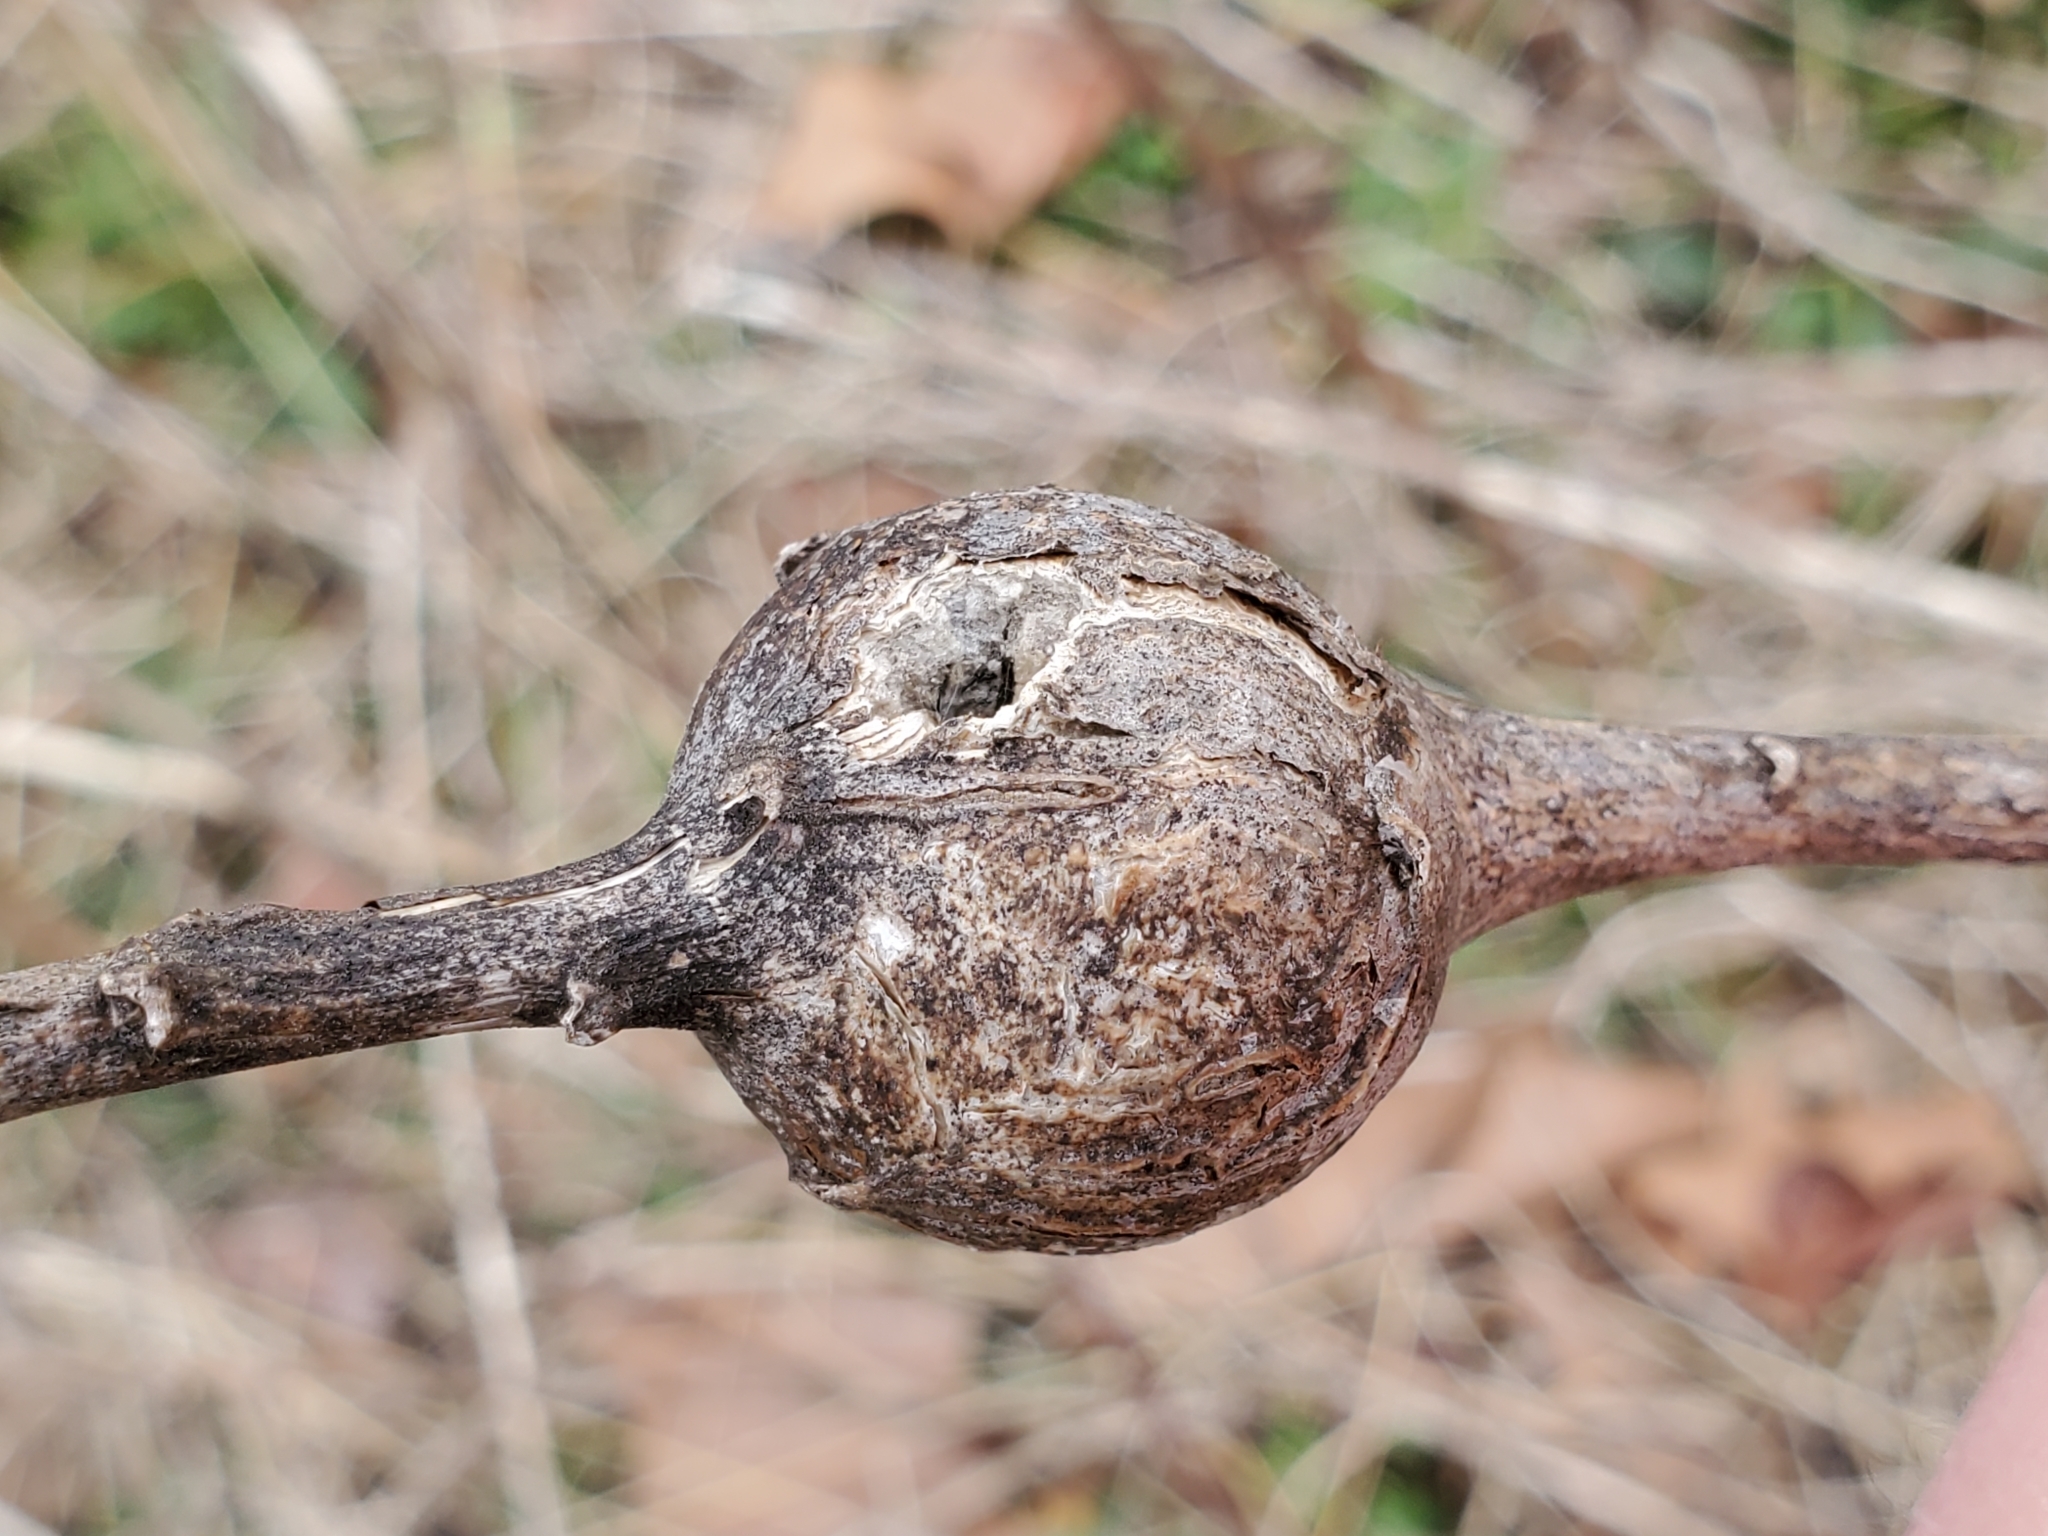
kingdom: Animalia
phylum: Arthropoda
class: Insecta
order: Diptera
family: Tephritidae
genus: Eurosta
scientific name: Eurosta solidaginis
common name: Goldenrod gall fly
